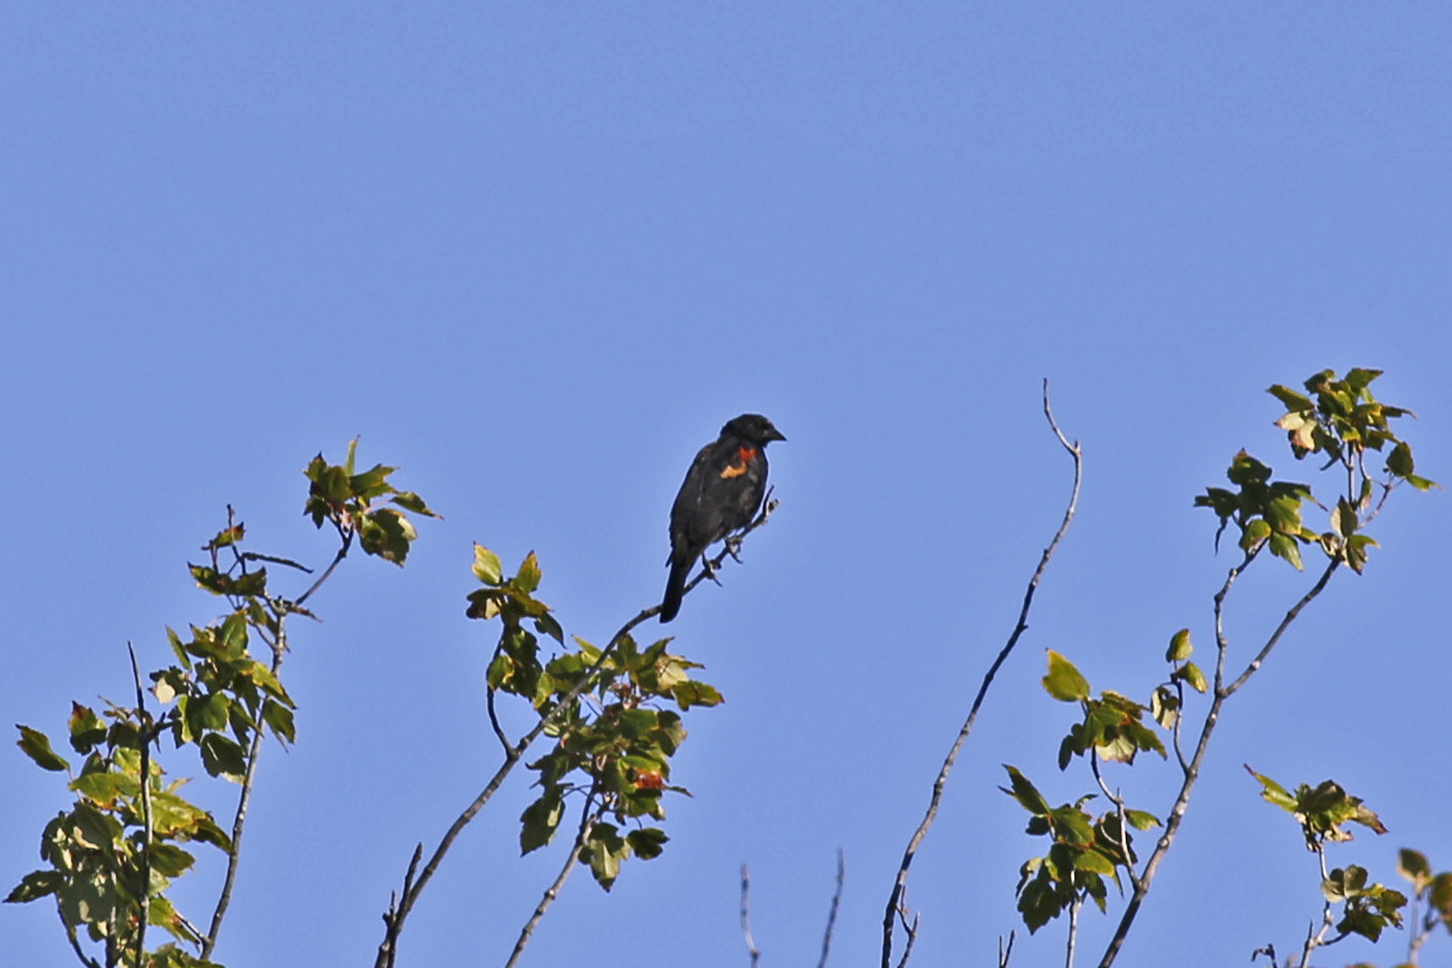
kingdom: Animalia
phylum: Chordata
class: Aves
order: Passeriformes
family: Icteridae
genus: Agelaius
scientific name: Agelaius phoeniceus
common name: Red-winged blackbird
